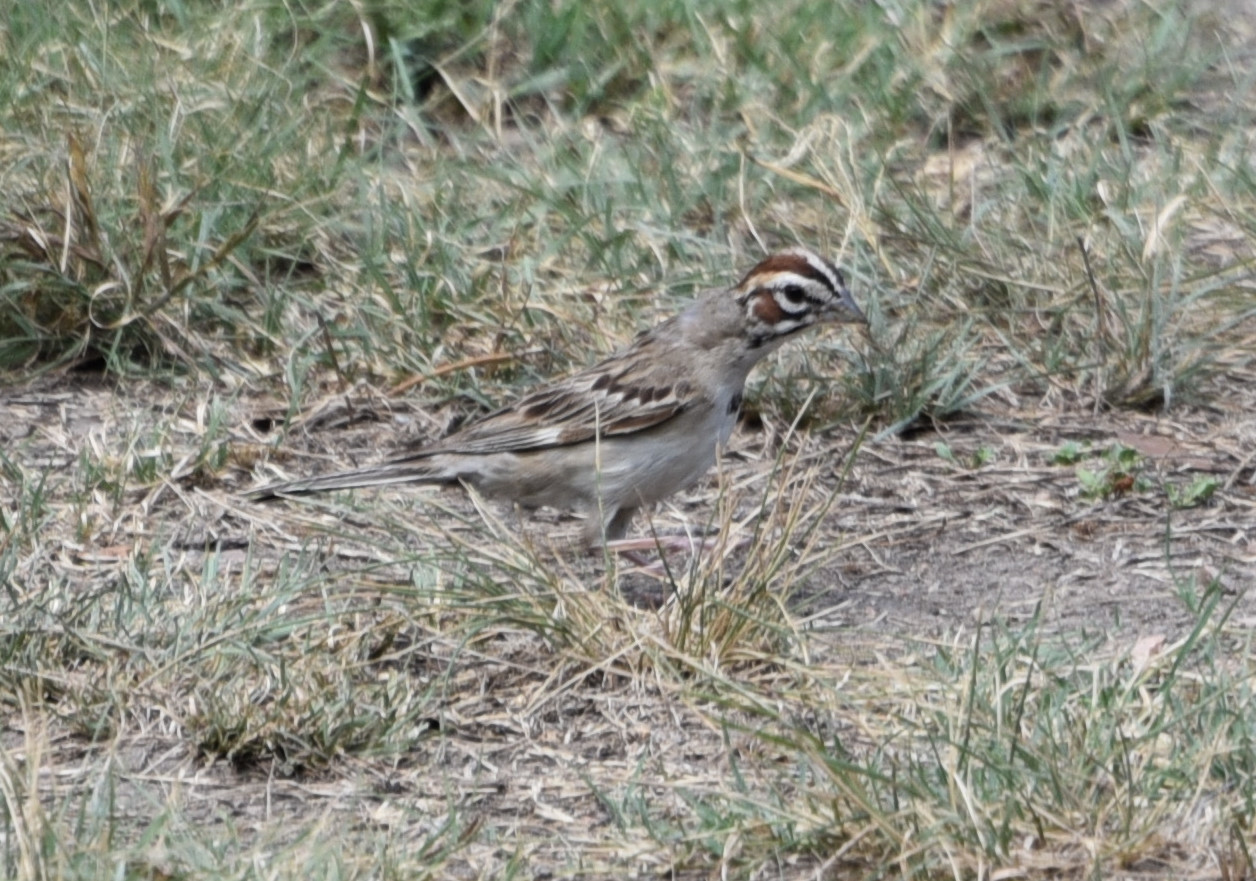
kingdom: Animalia
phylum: Chordata
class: Aves
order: Passeriformes
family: Passerellidae
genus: Chondestes
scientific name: Chondestes grammacus
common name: Lark sparrow
